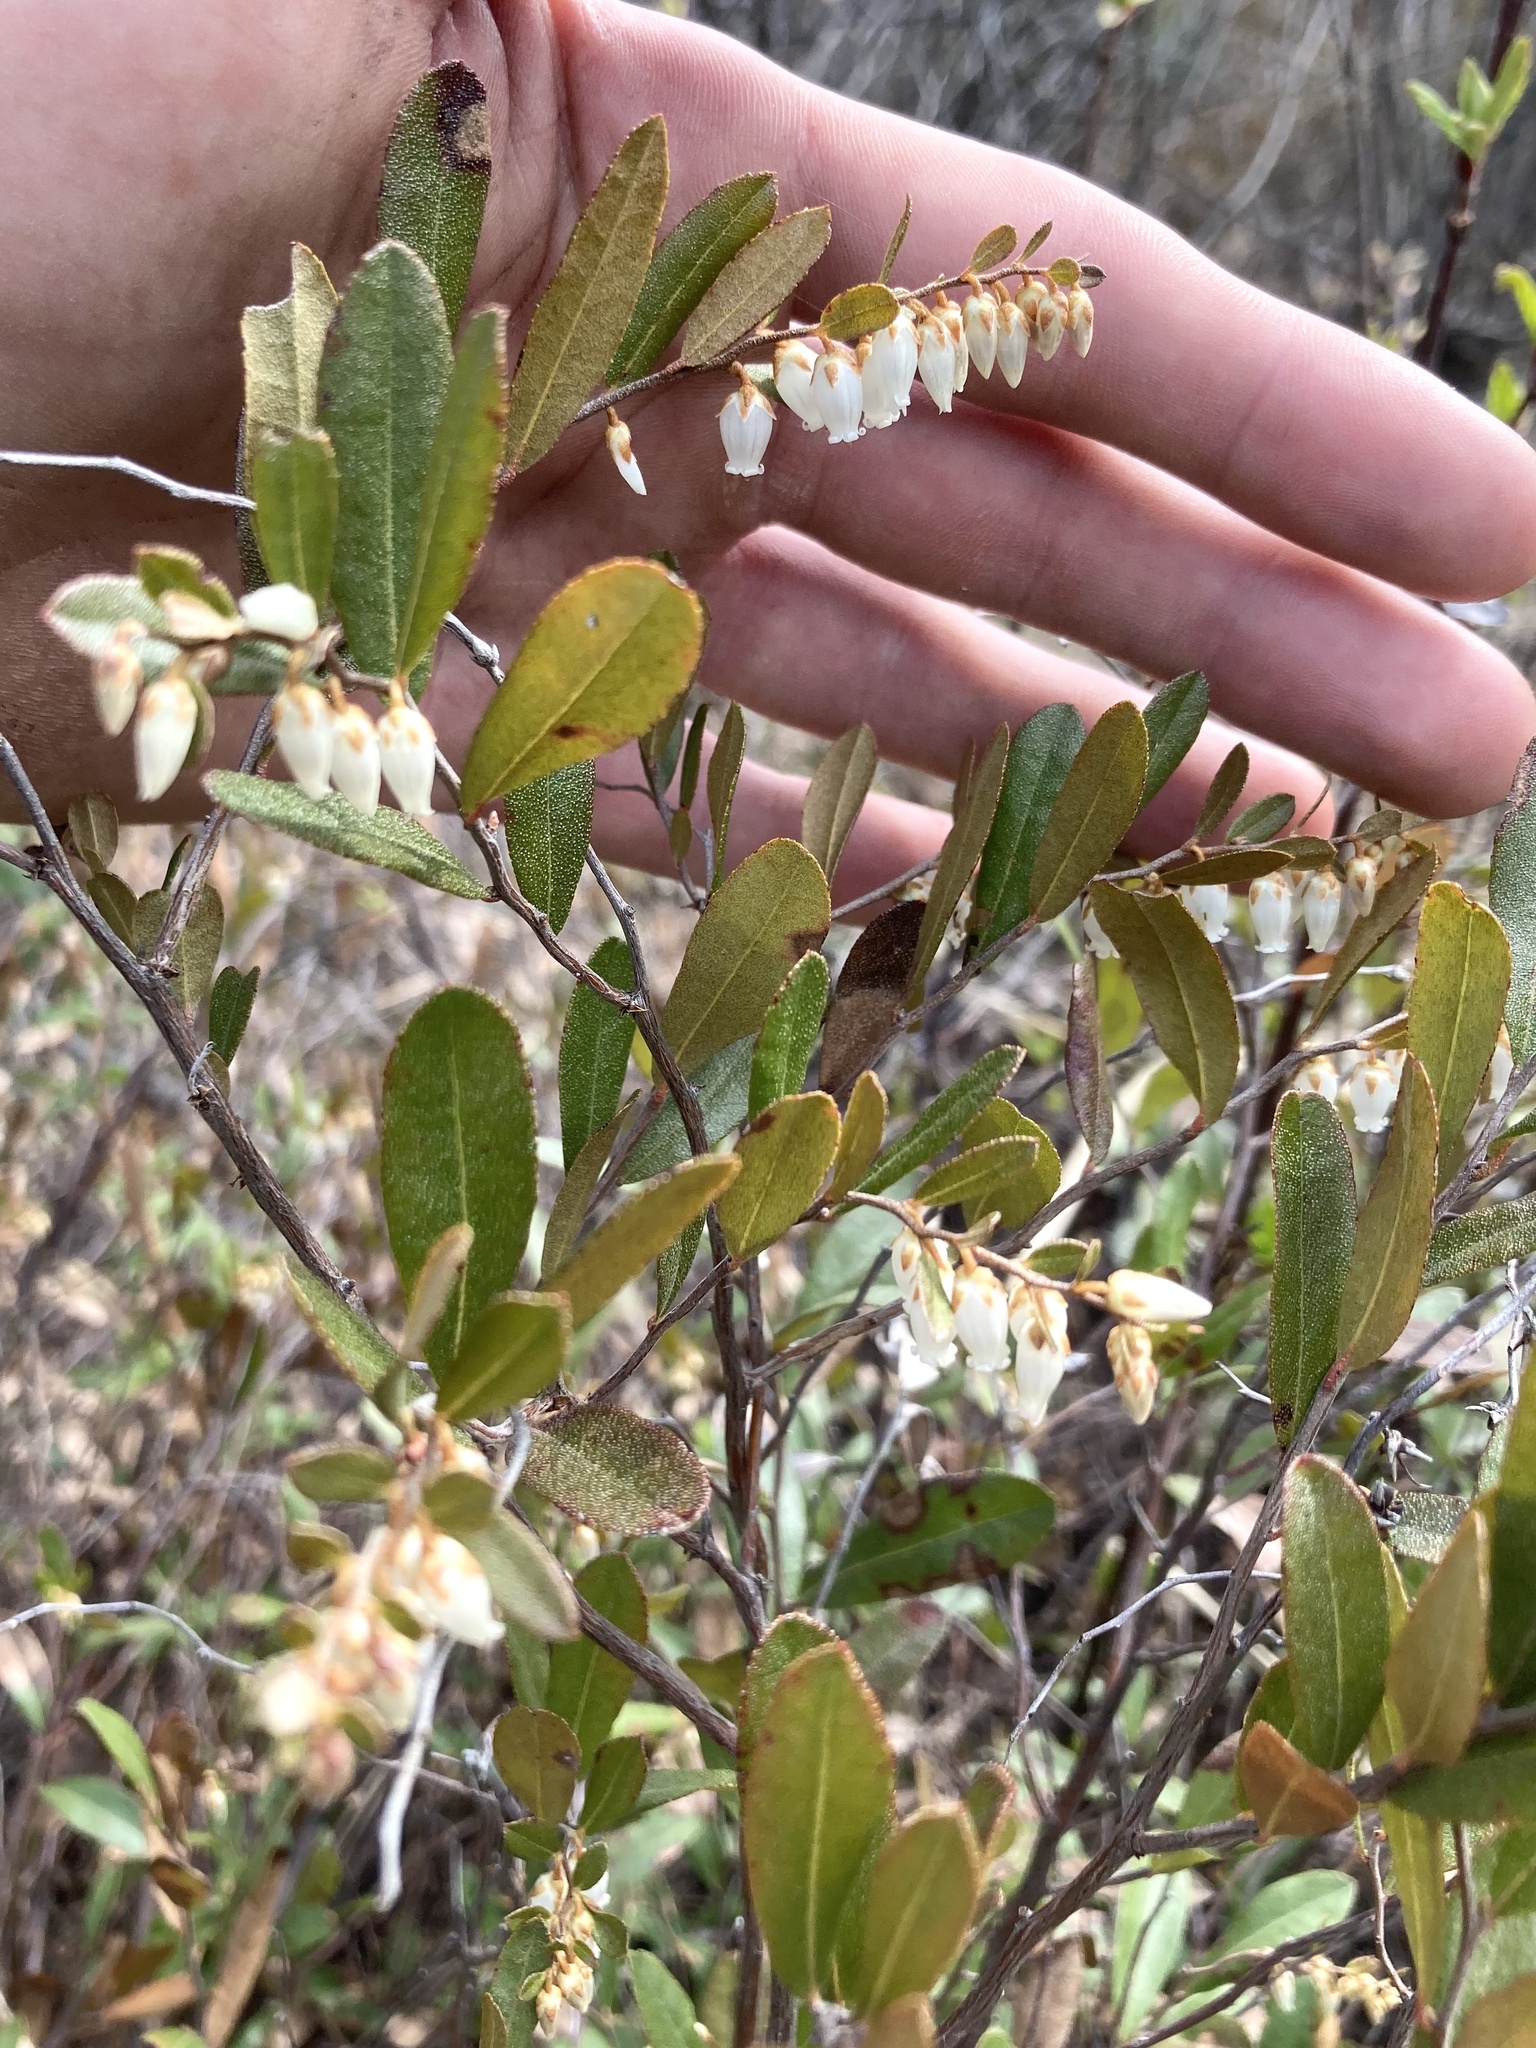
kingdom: Plantae
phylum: Tracheophyta
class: Magnoliopsida
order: Ericales
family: Ericaceae
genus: Chamaedaphne
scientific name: Chamaedaphne calyculata
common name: Leatherleaf
